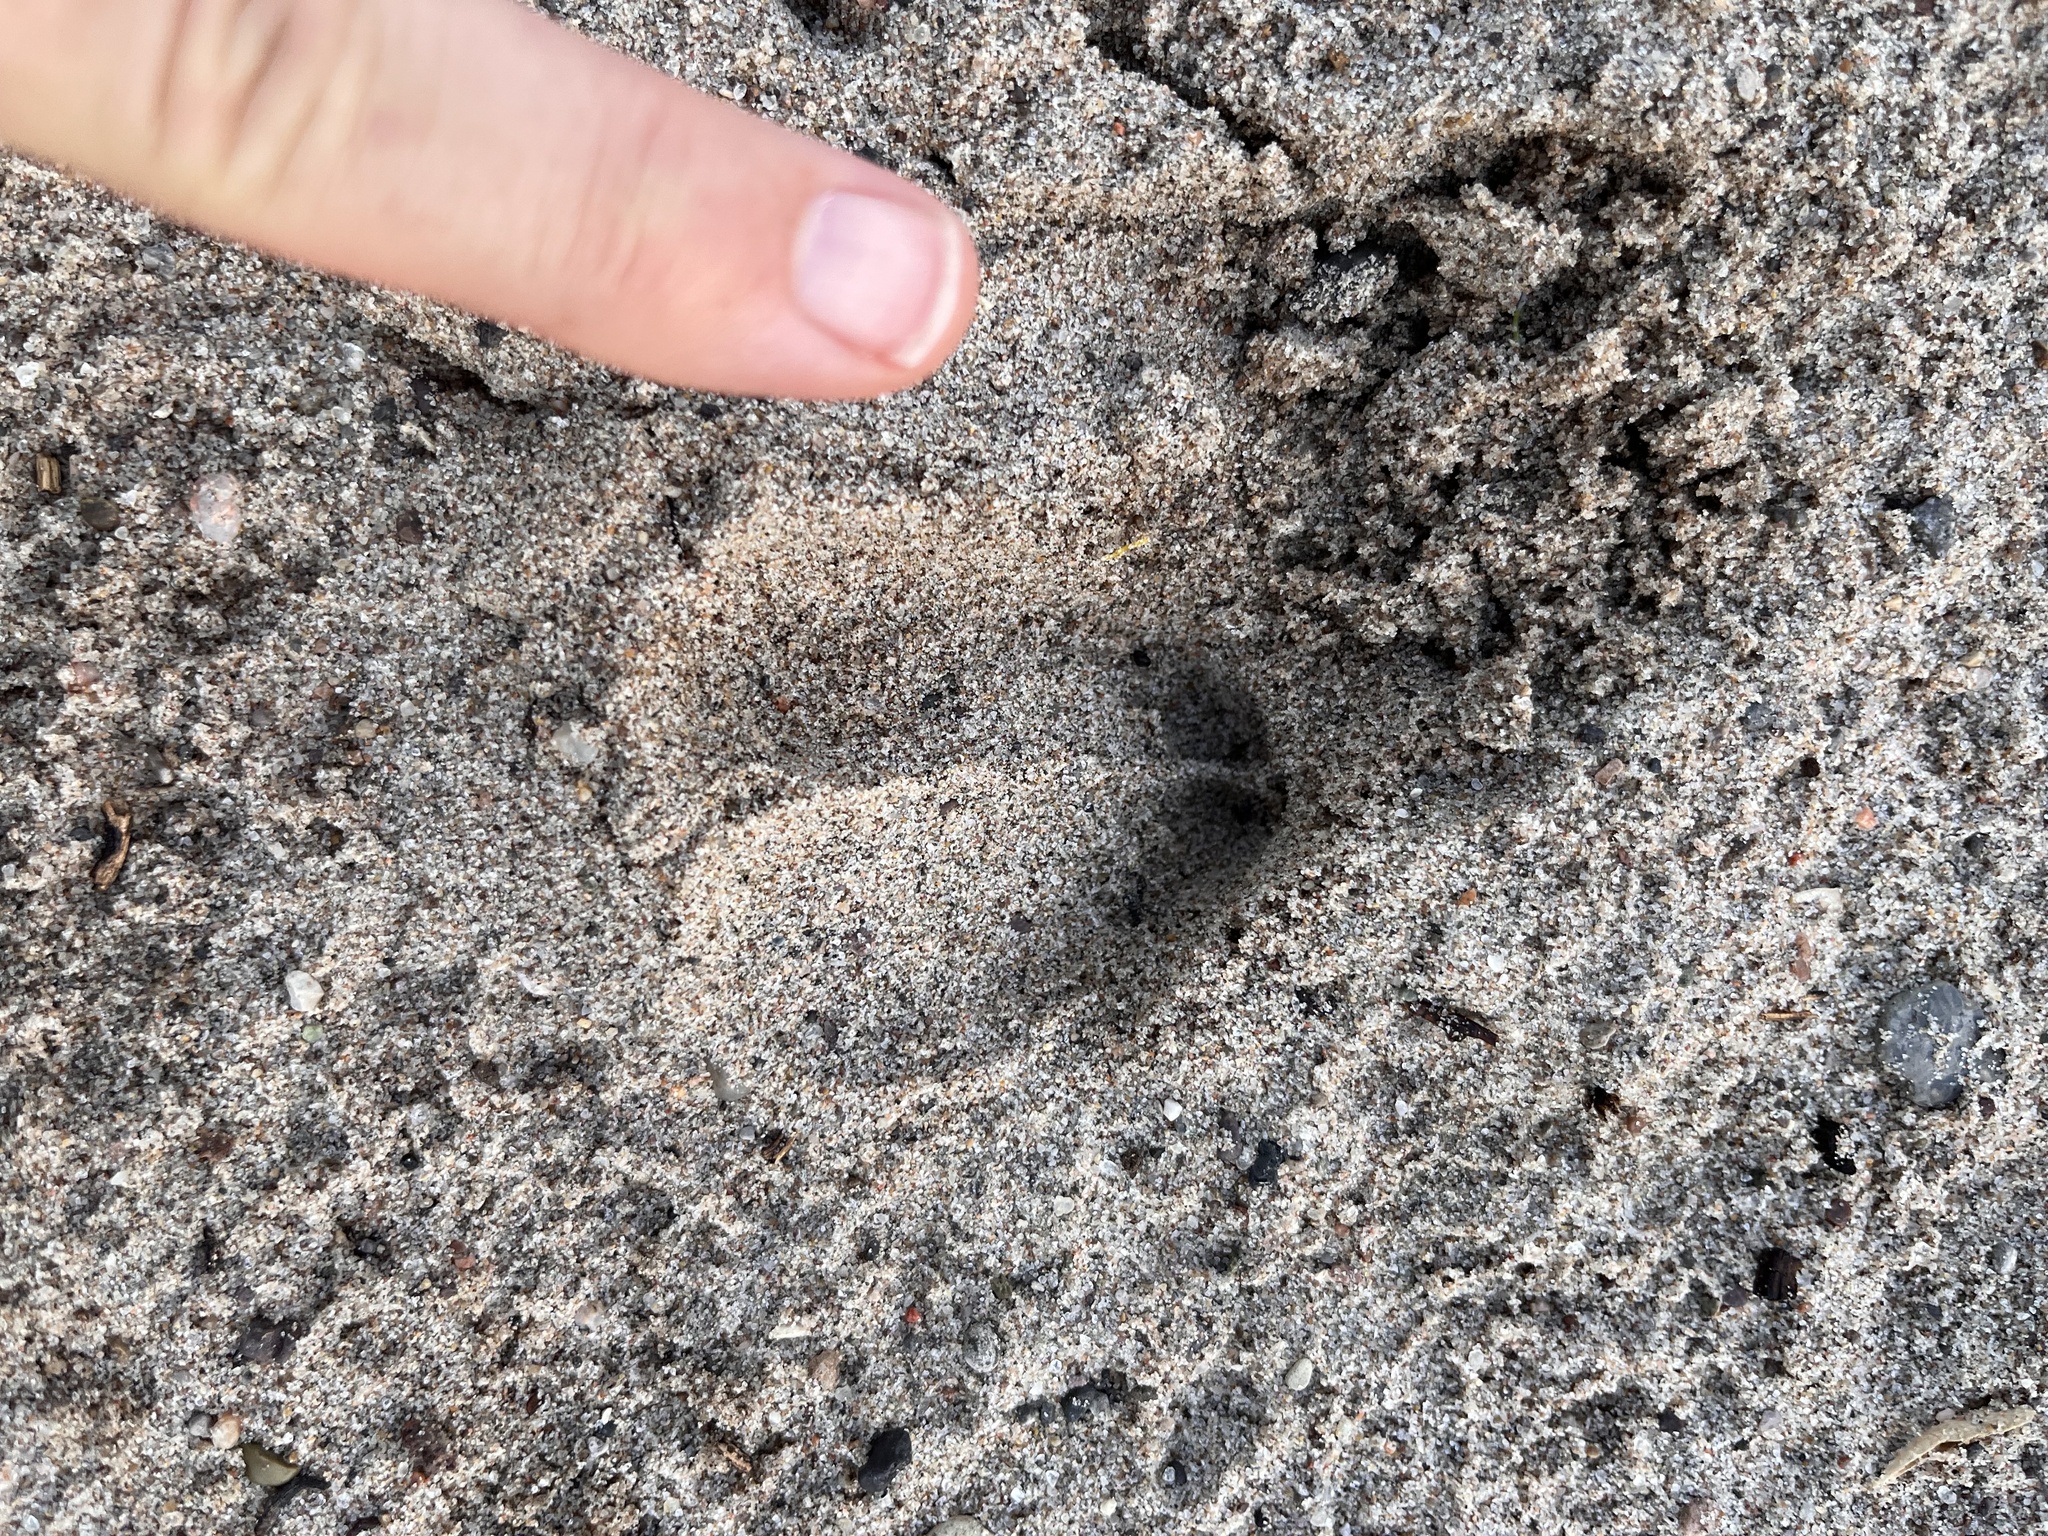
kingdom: Animalia
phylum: Chordata
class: Mammalia
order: Artiodactyla
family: Tayassuidae
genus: Pecari
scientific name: Pecari tajacu
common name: Collared peccary
